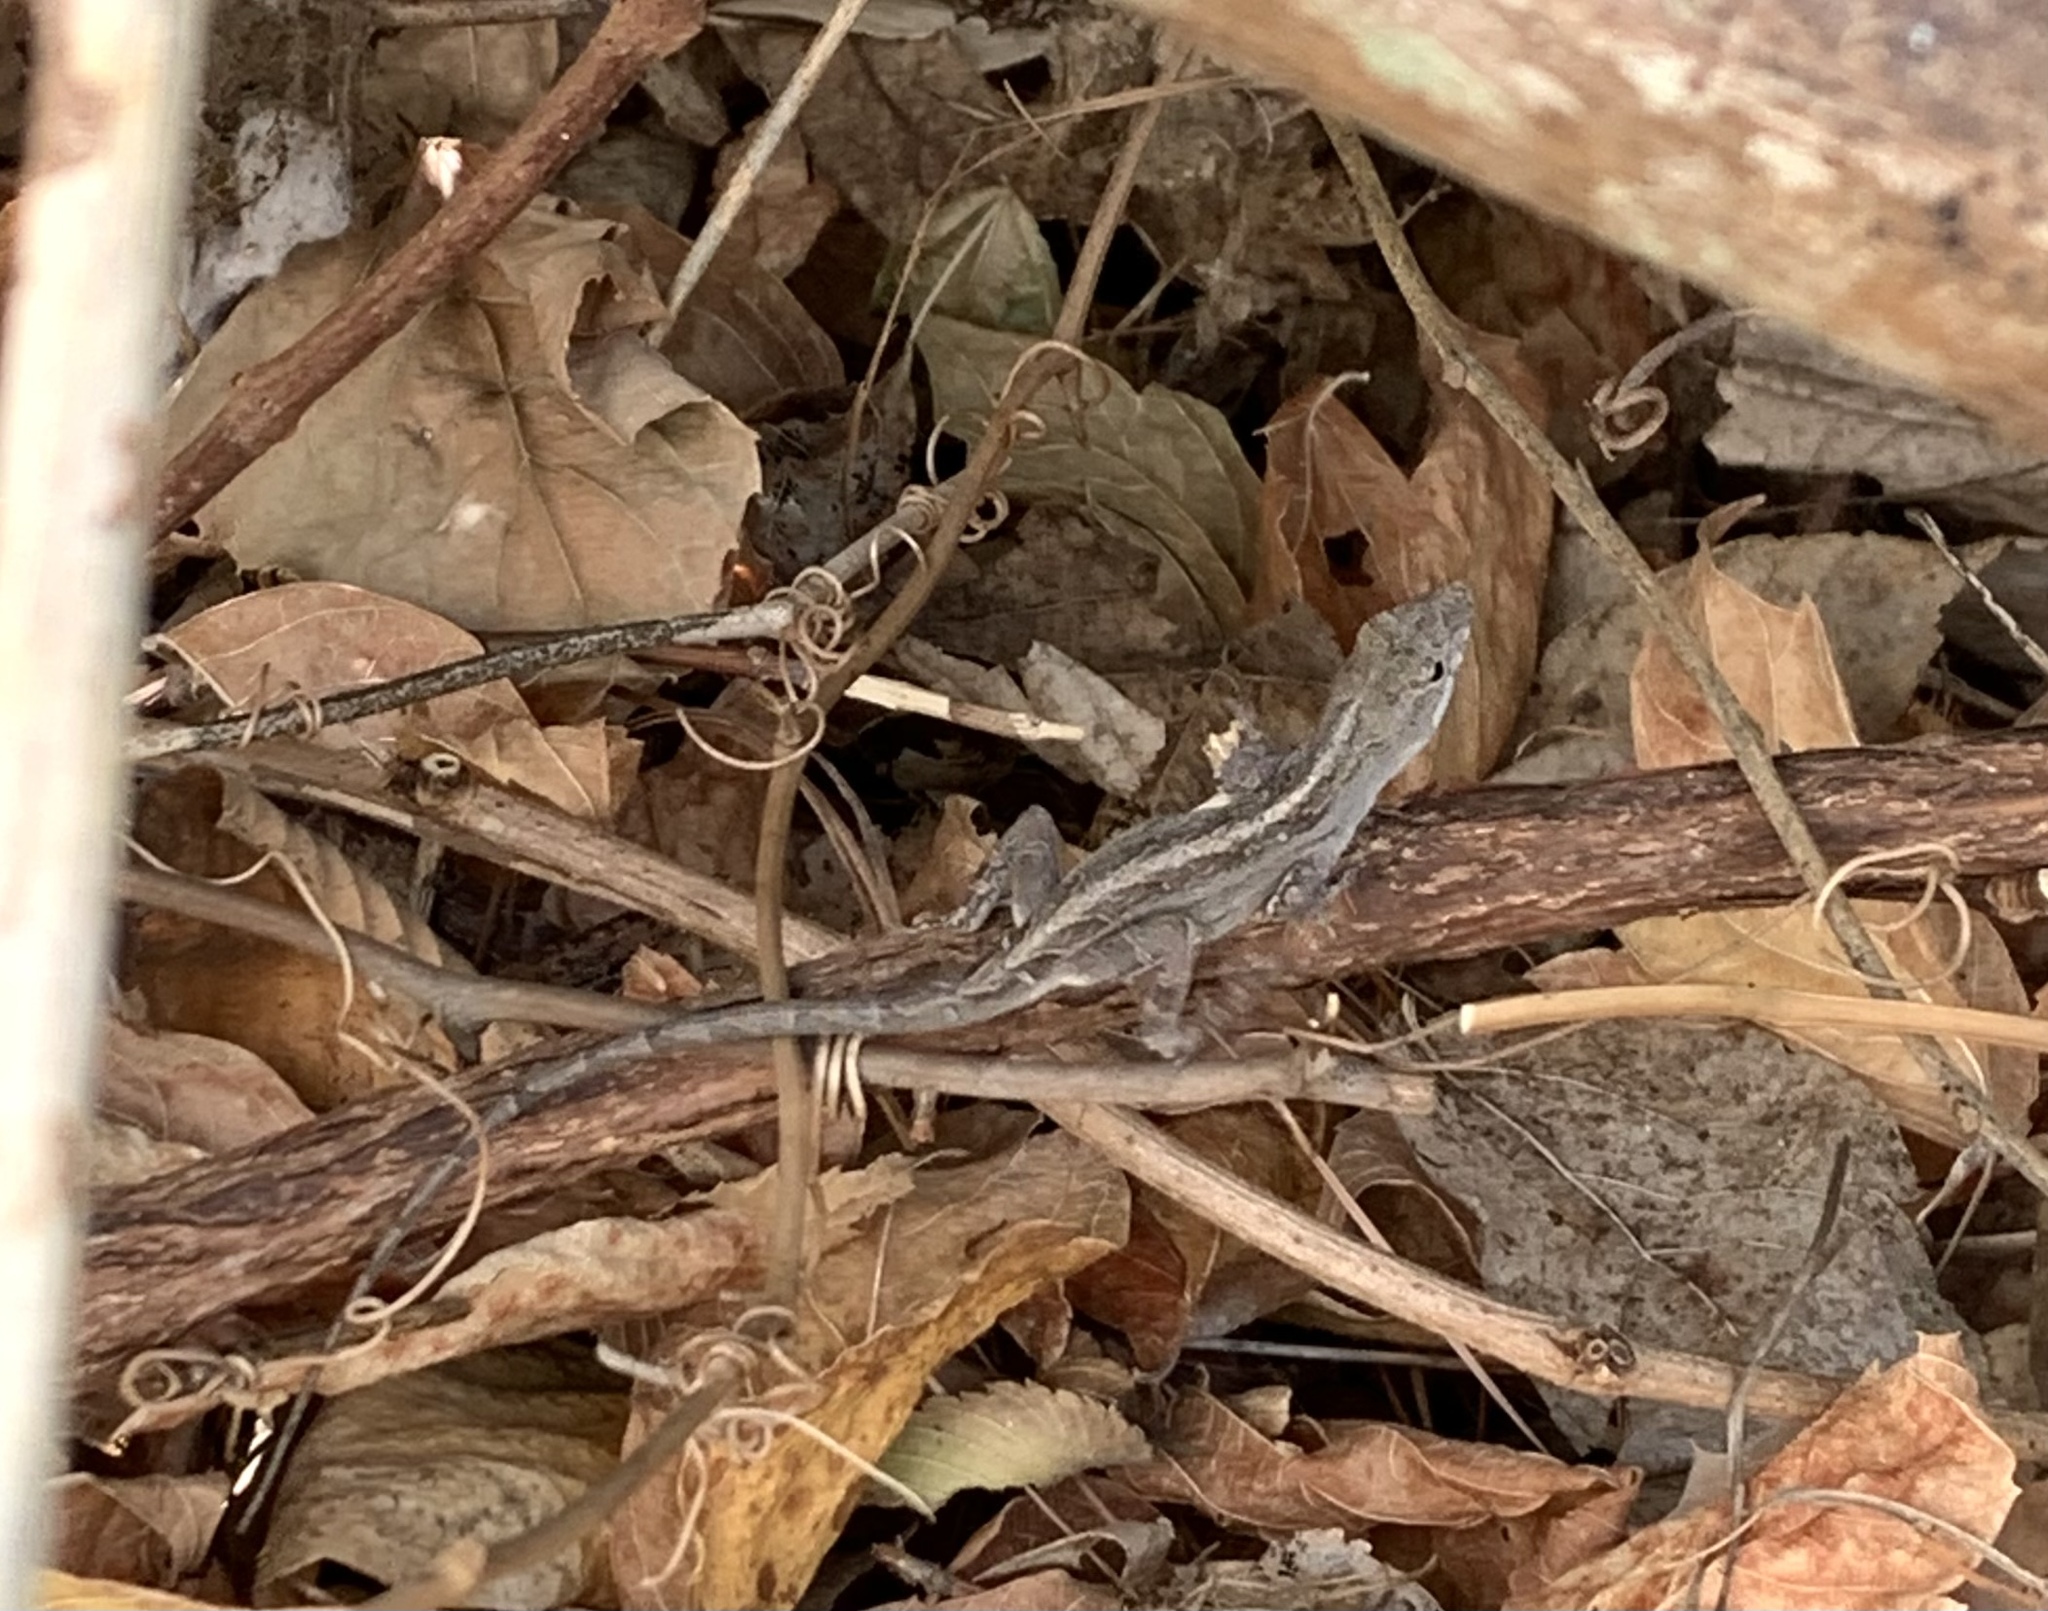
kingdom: Animalia
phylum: Chordata
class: Squamata
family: Dactyloidae
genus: Anolis
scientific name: Anolis sagrei
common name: Brown anole
